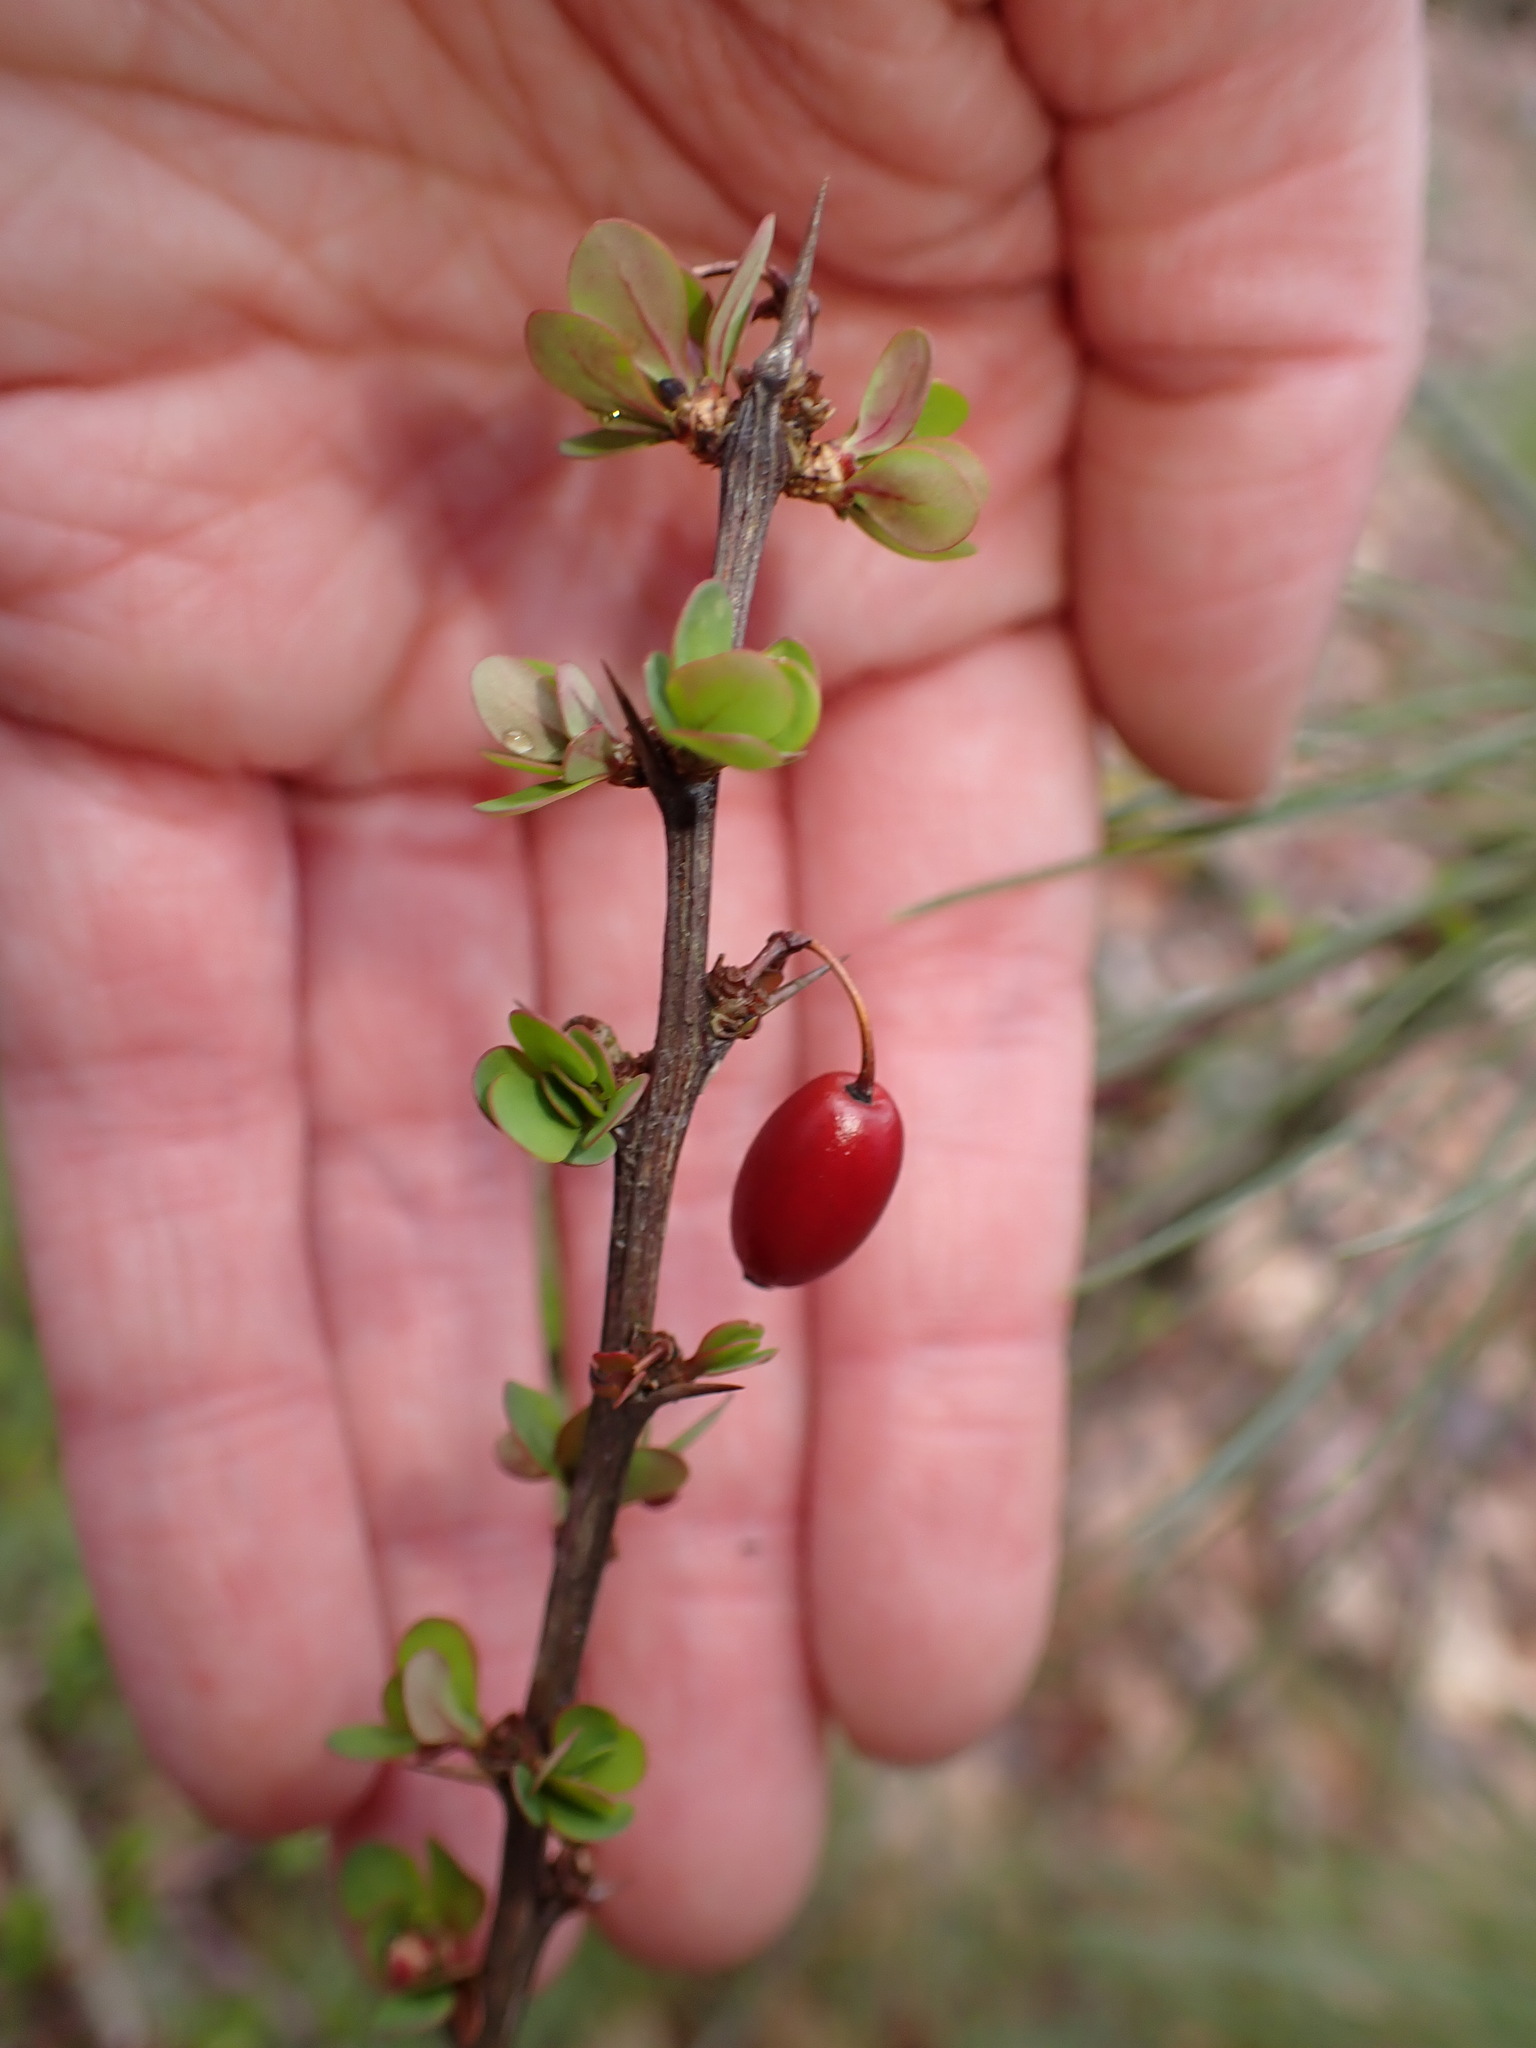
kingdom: Plantae
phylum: Tracheophyta
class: Magnoliopsida
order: Ranunculales
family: Berberidaceae
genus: Berberis
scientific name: Berberis thunbergii
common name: Japanese barberry
